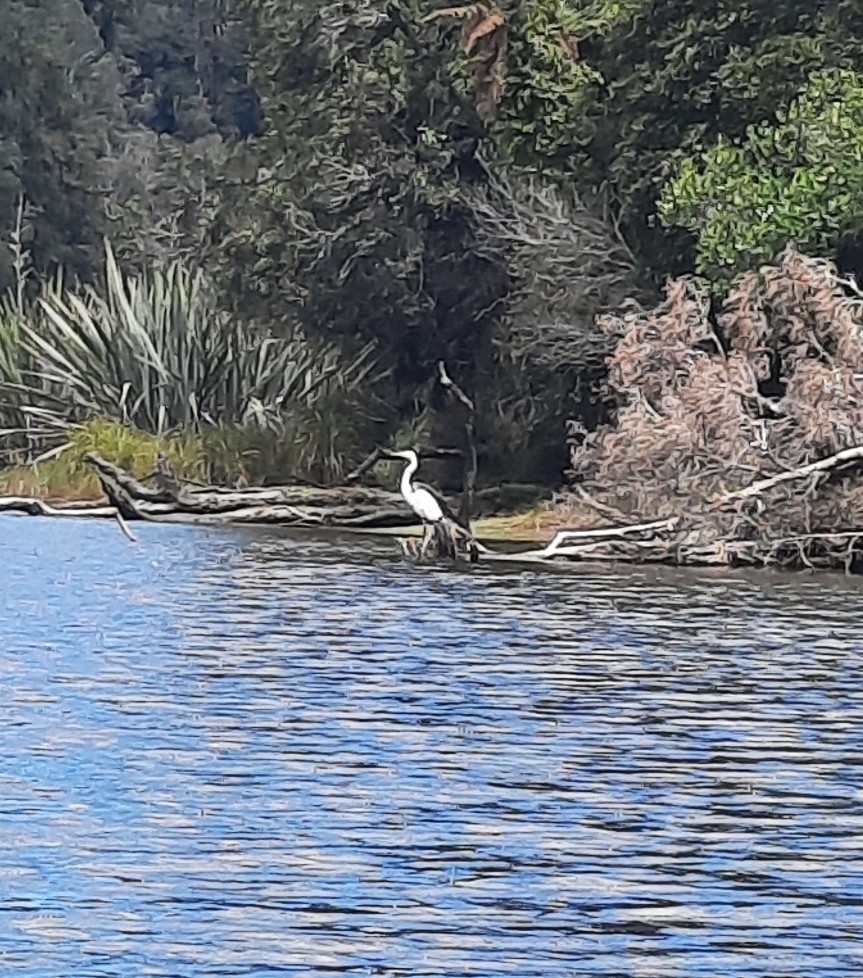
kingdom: Animalia
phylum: Chordata
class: Aves
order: Pelecaniformes
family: Ardeidae
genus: Ardea
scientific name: Ardea modesta
